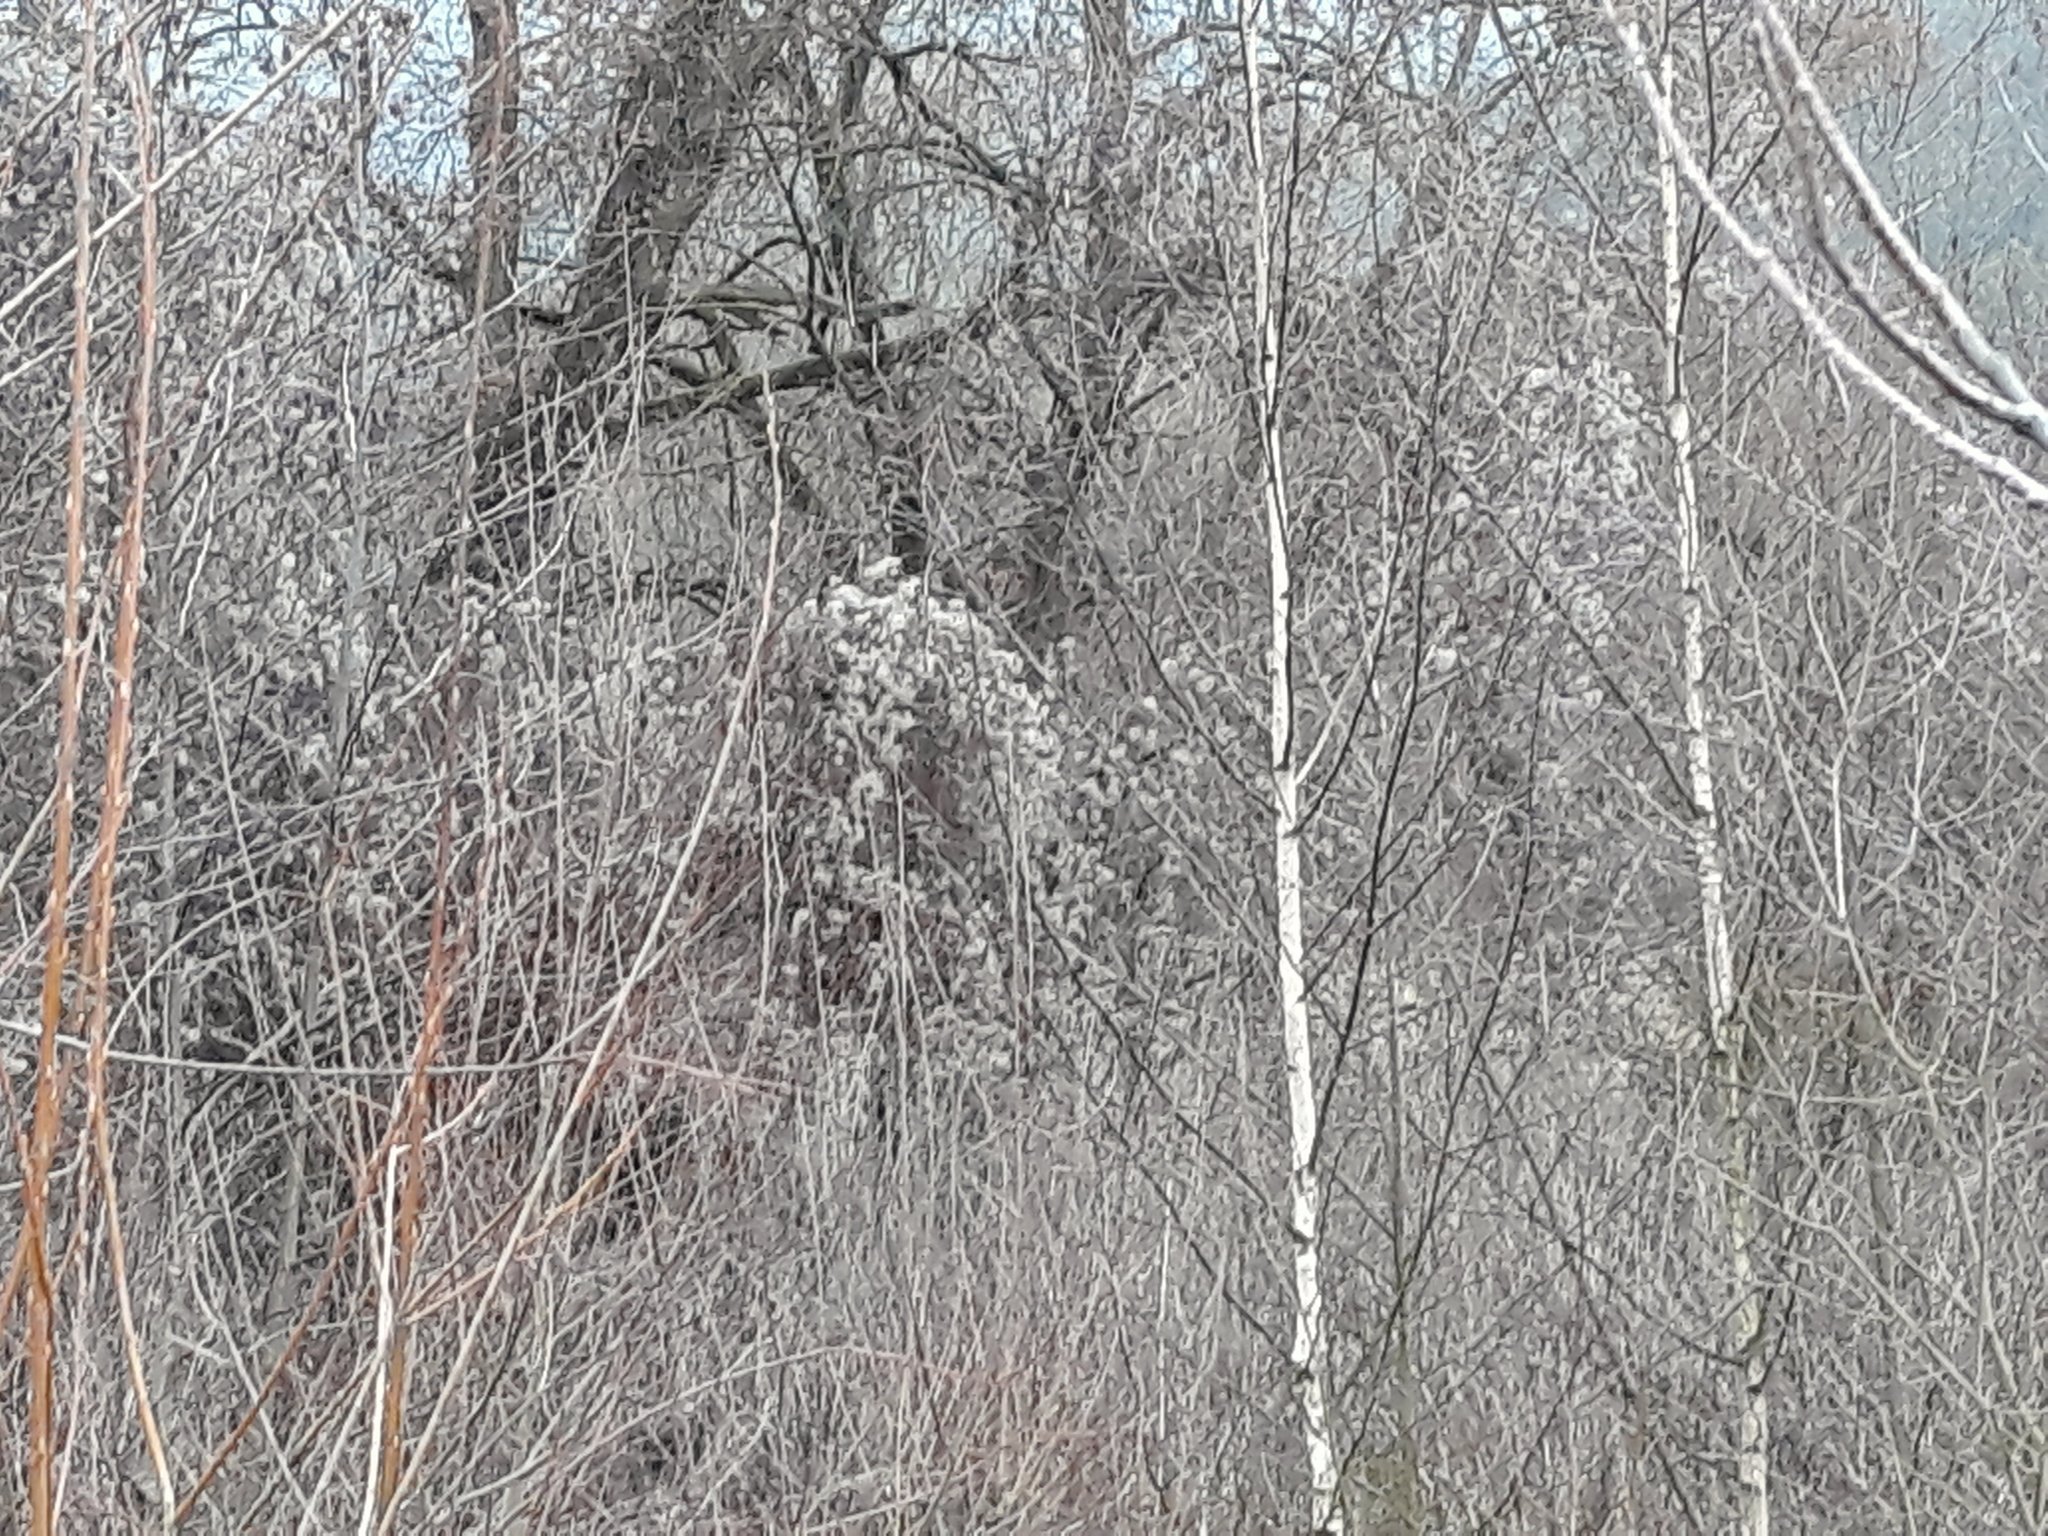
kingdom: Plantae
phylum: Tracheophyta
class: Magnoliopsida
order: Ranunculales
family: Ranunculaceae
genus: Clematis
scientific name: Clematis vitalba
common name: Evergreen clematis
